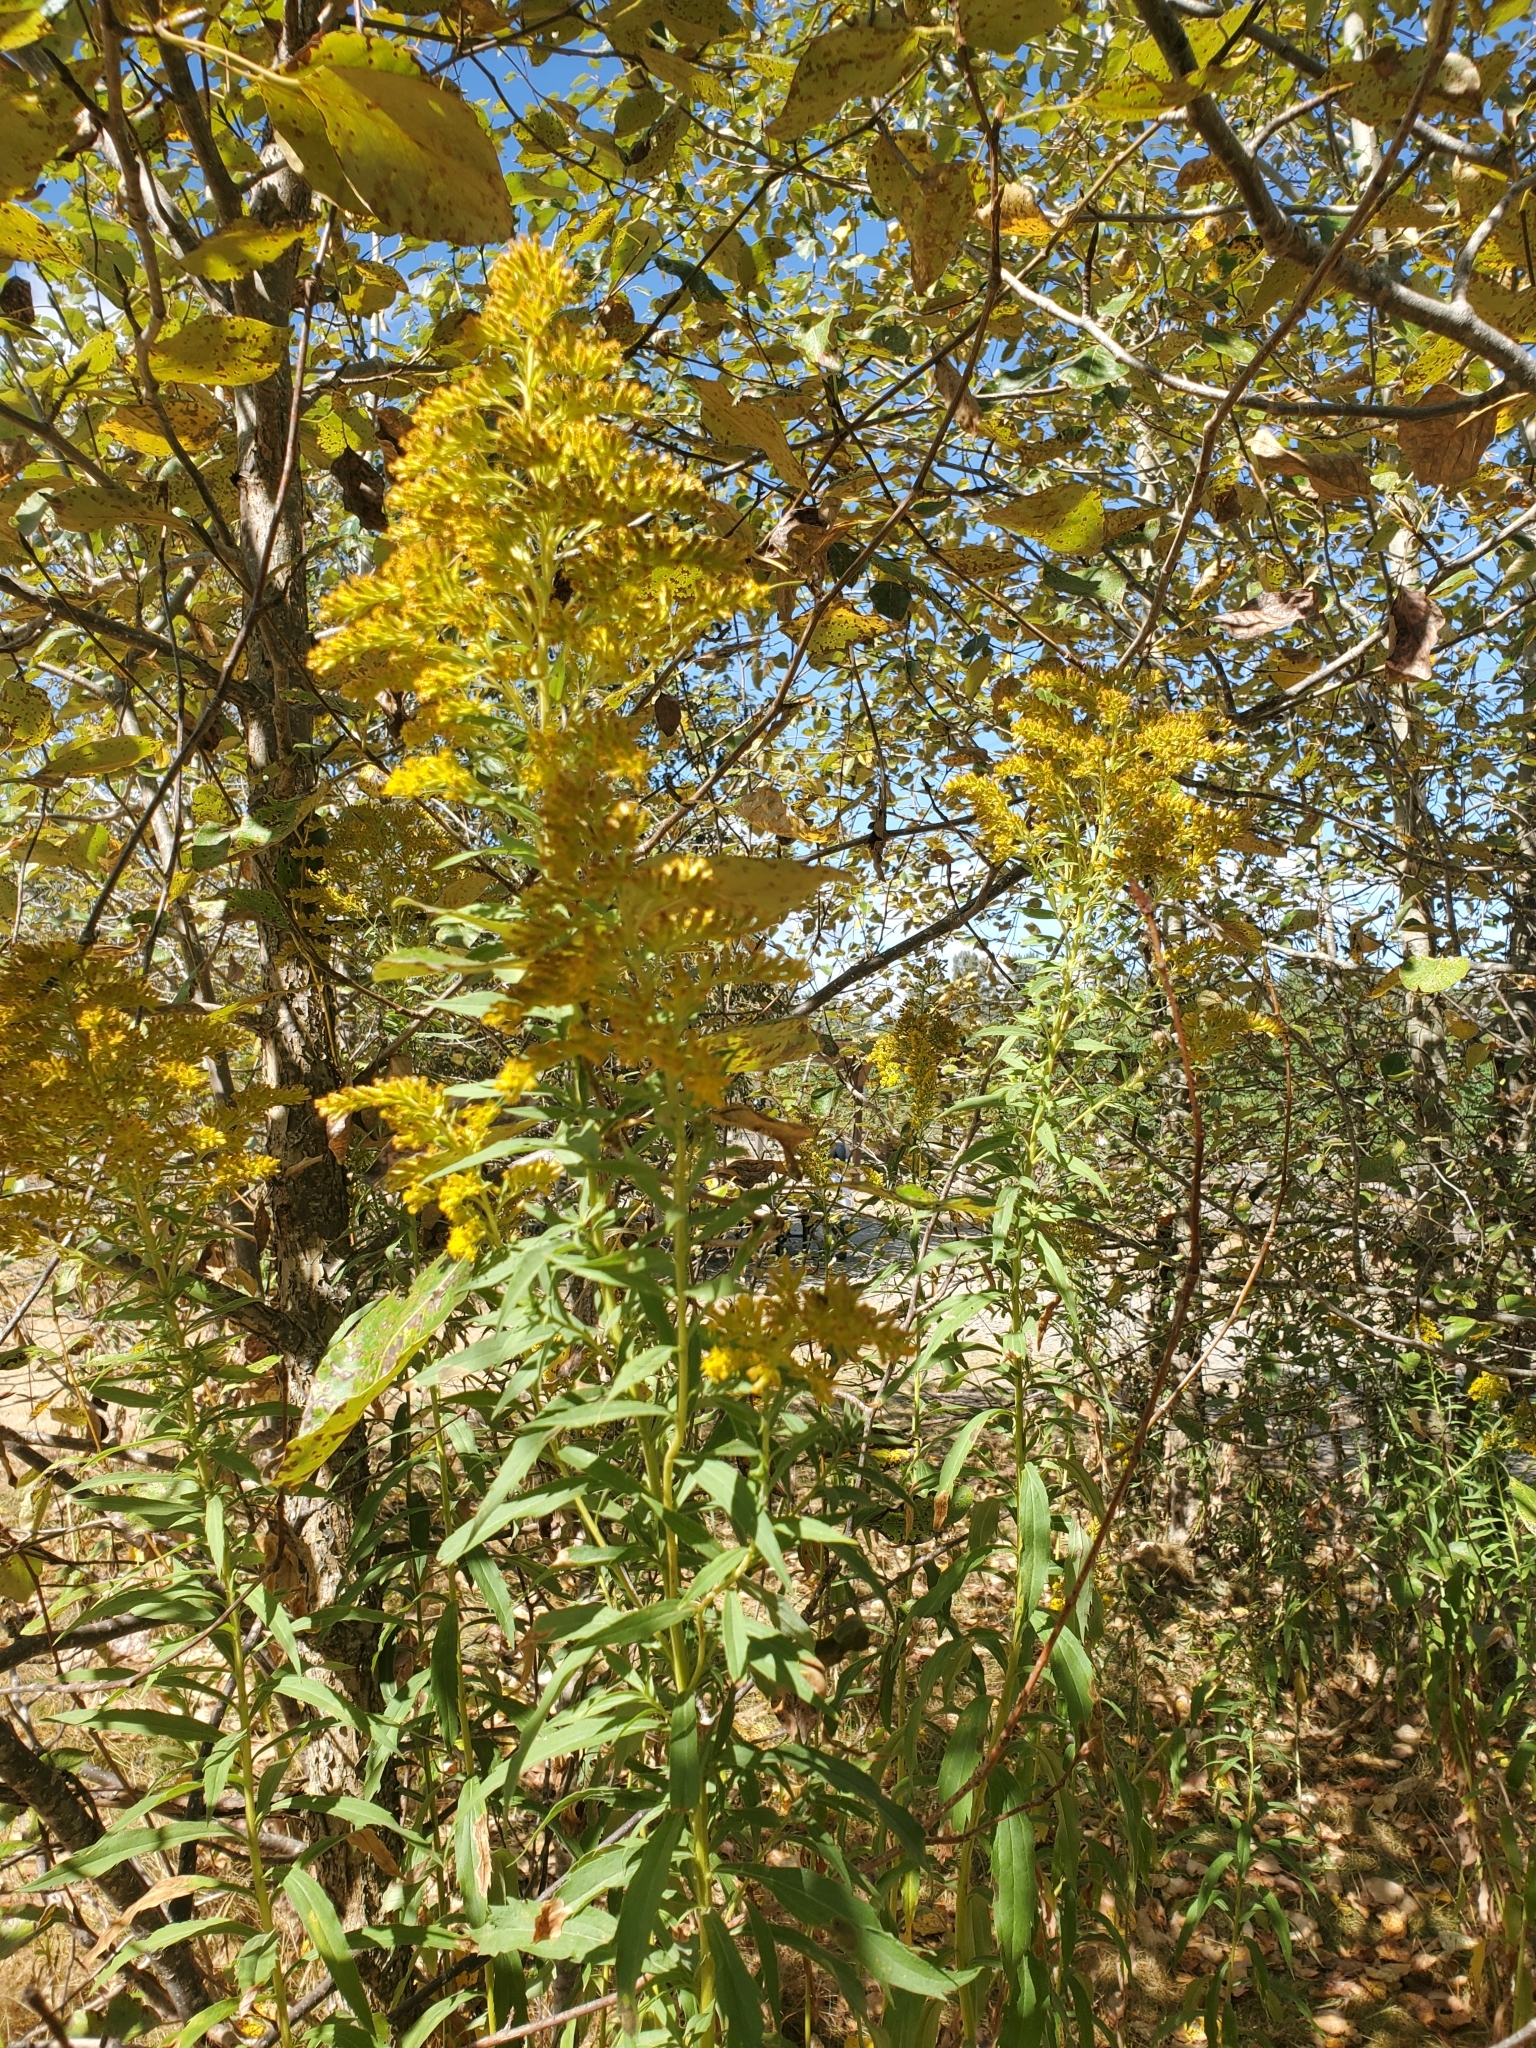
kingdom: Plantae
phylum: Tracheophyta
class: Magnoliopsida
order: Asterales
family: Asteraceae
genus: Solidago
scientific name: Solidago lepida
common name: Western canada goldenrod
